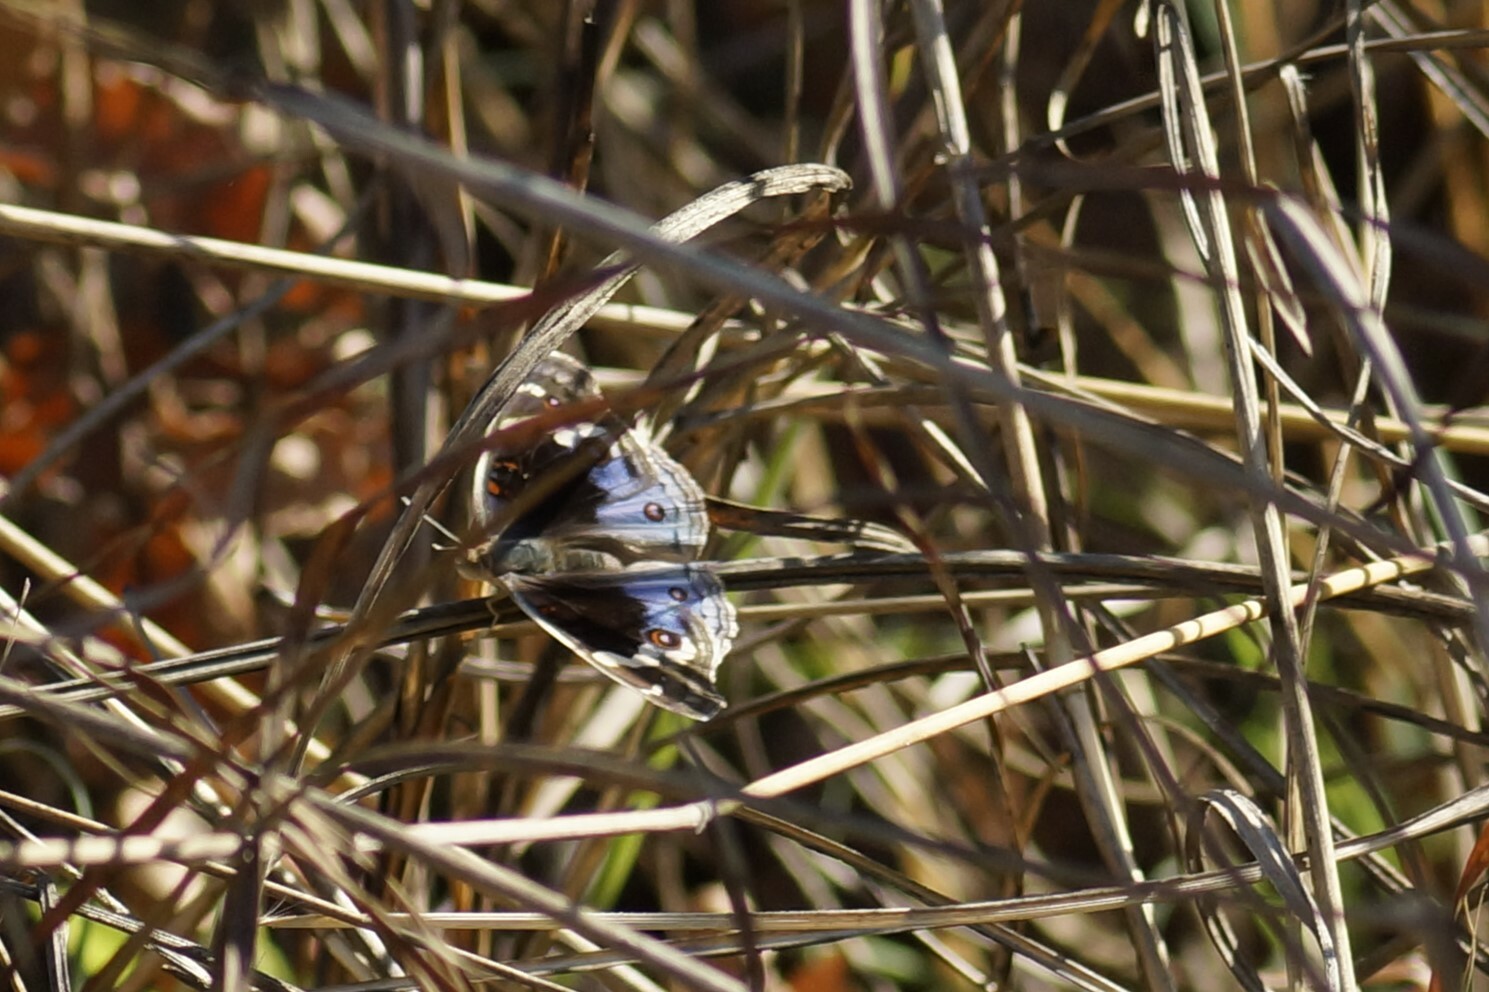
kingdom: Animalia
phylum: Arthropoda
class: Insecta
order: Lepidoptera
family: Nymphalidae
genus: Junonia
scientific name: Junonia orithya
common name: Blue pansy
